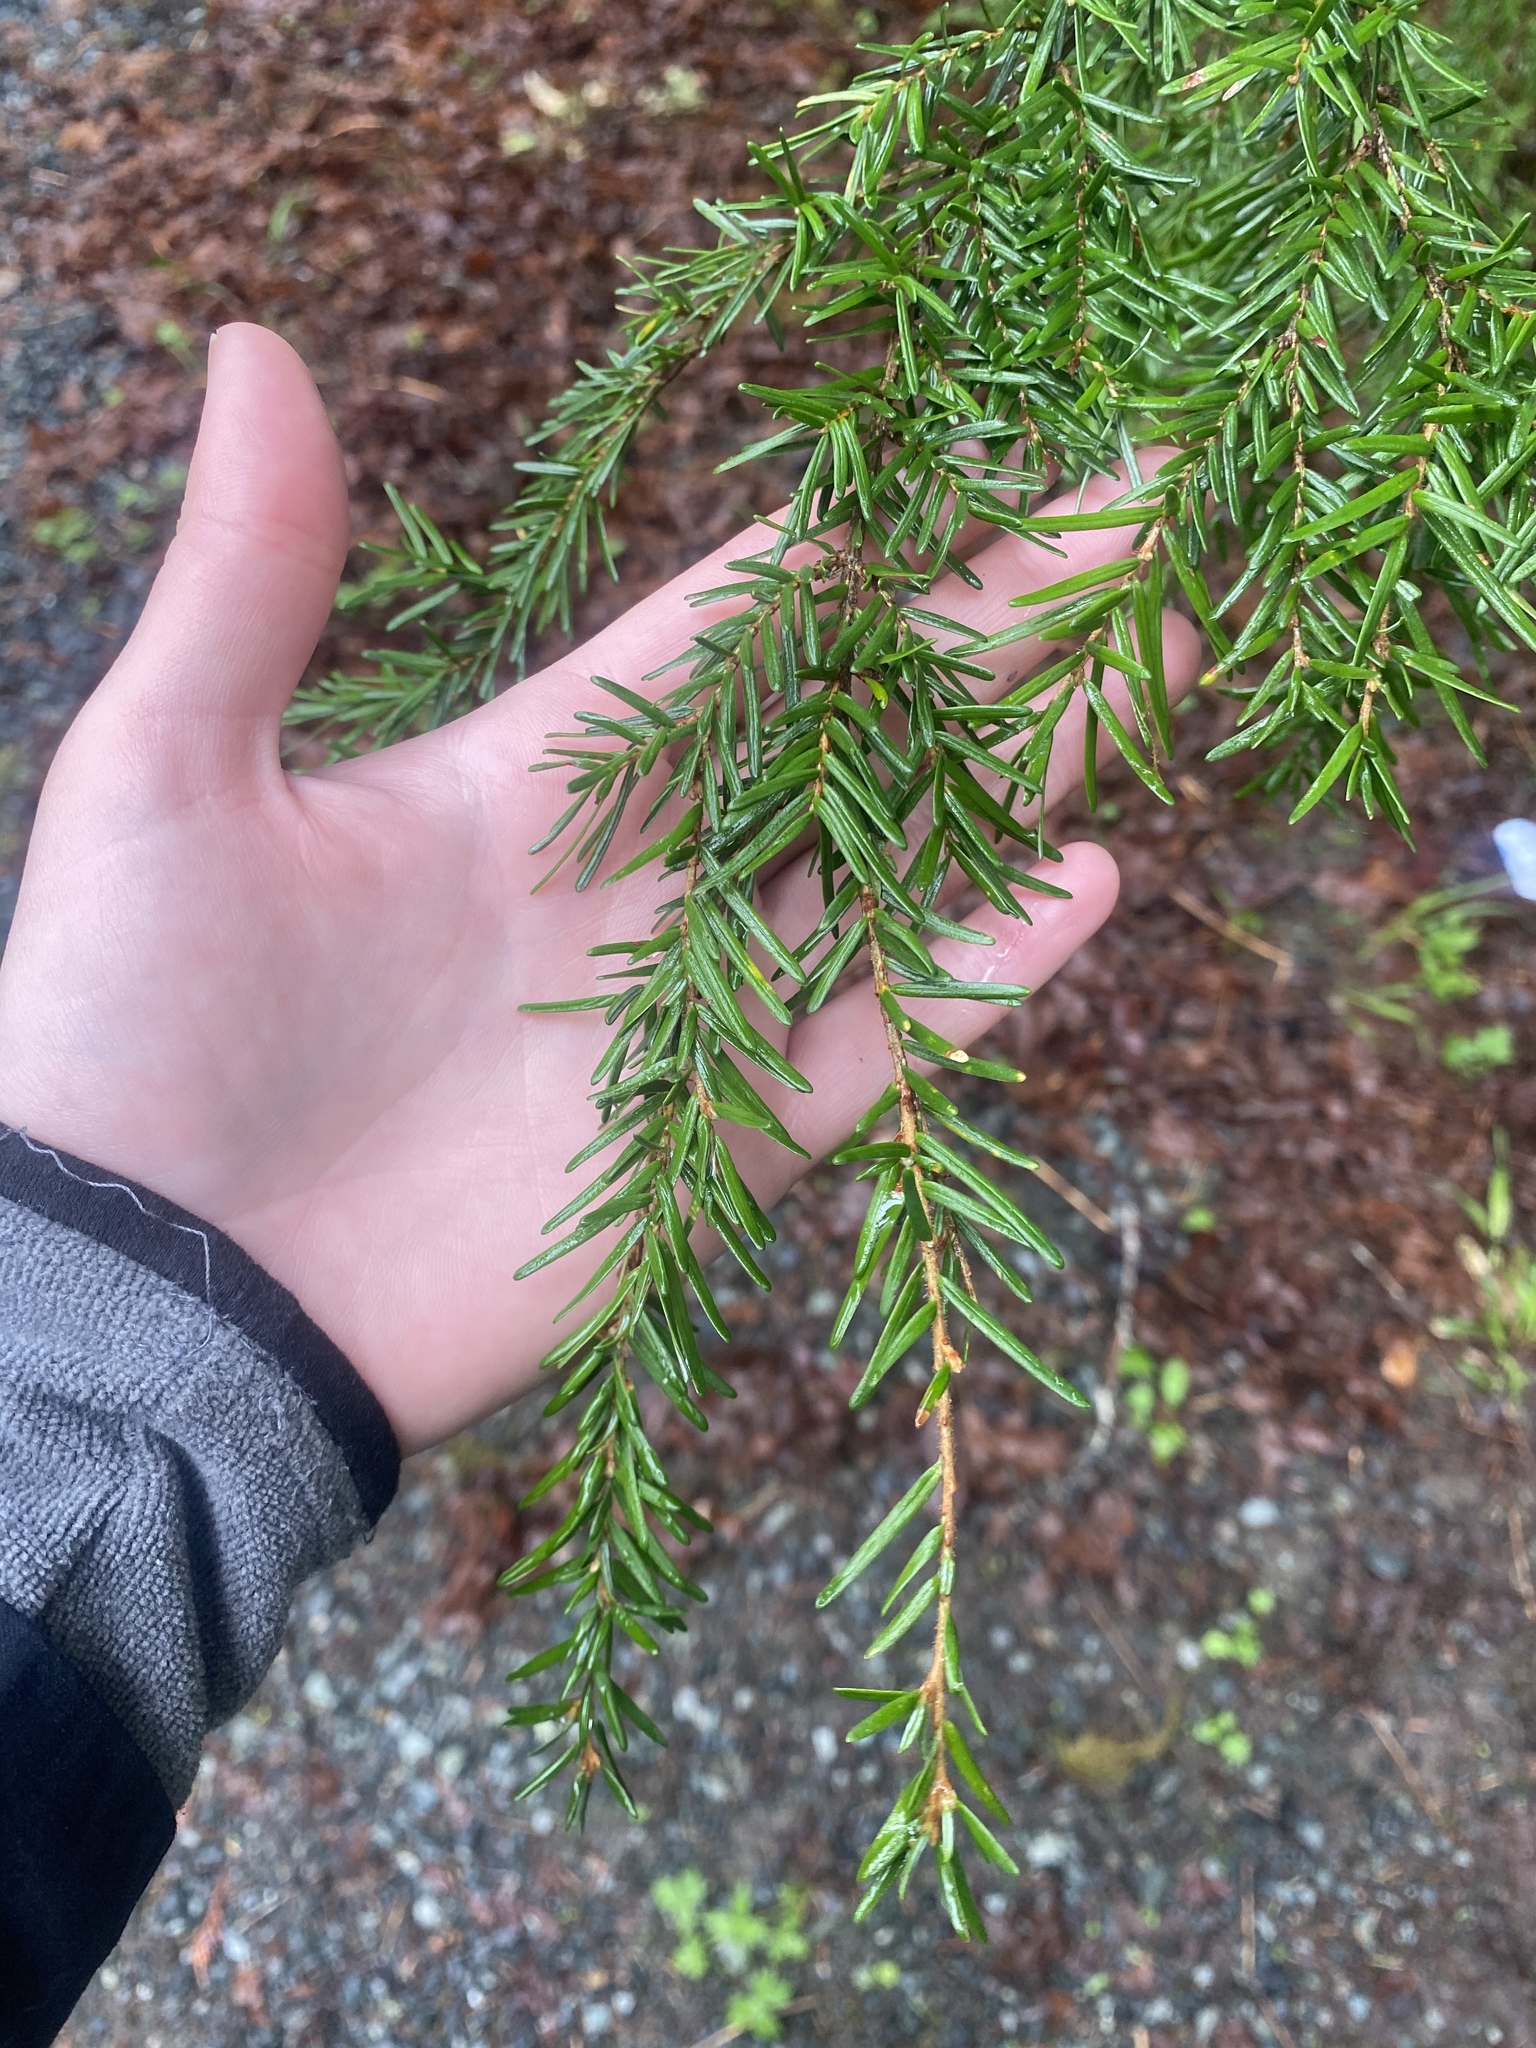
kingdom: Plantae
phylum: Tracheophyta
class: Pinopsida
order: Pinales
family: Pinaceae
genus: Tsuga
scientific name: Tsuga heterophylla
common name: Western hemlock
